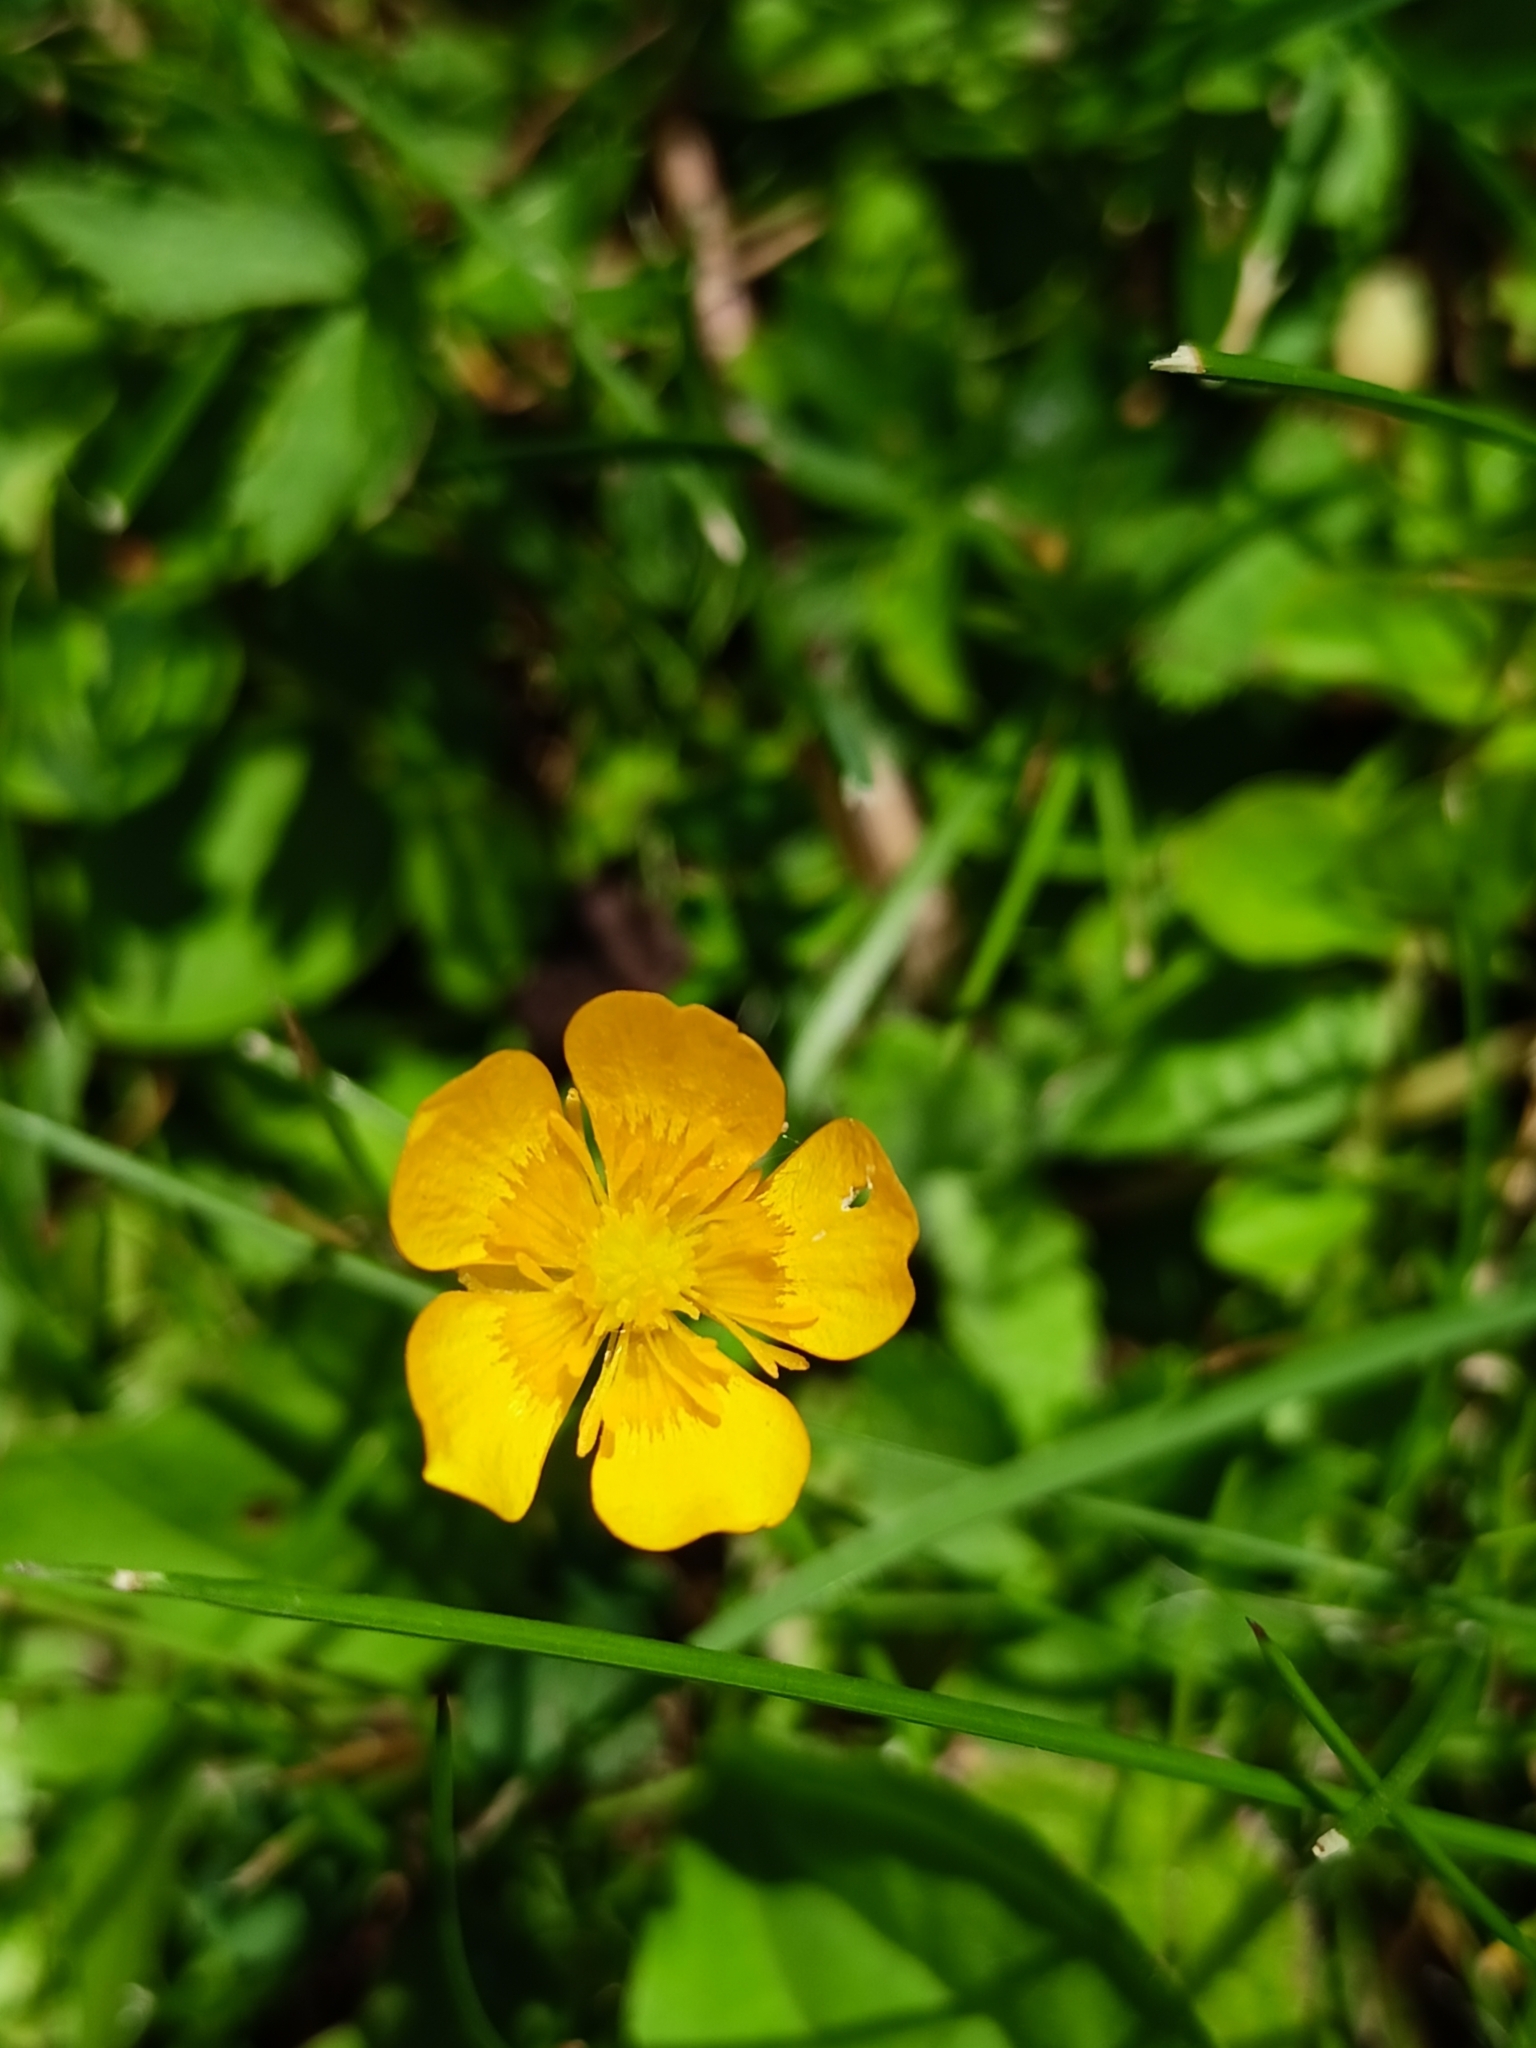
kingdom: Plantae
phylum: Tracheophyta
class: Magnoliopsida
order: Ranunculales
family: Ranunculaceae
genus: Ranunculus
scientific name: Ranunculus repens
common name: Creeping buttercup
